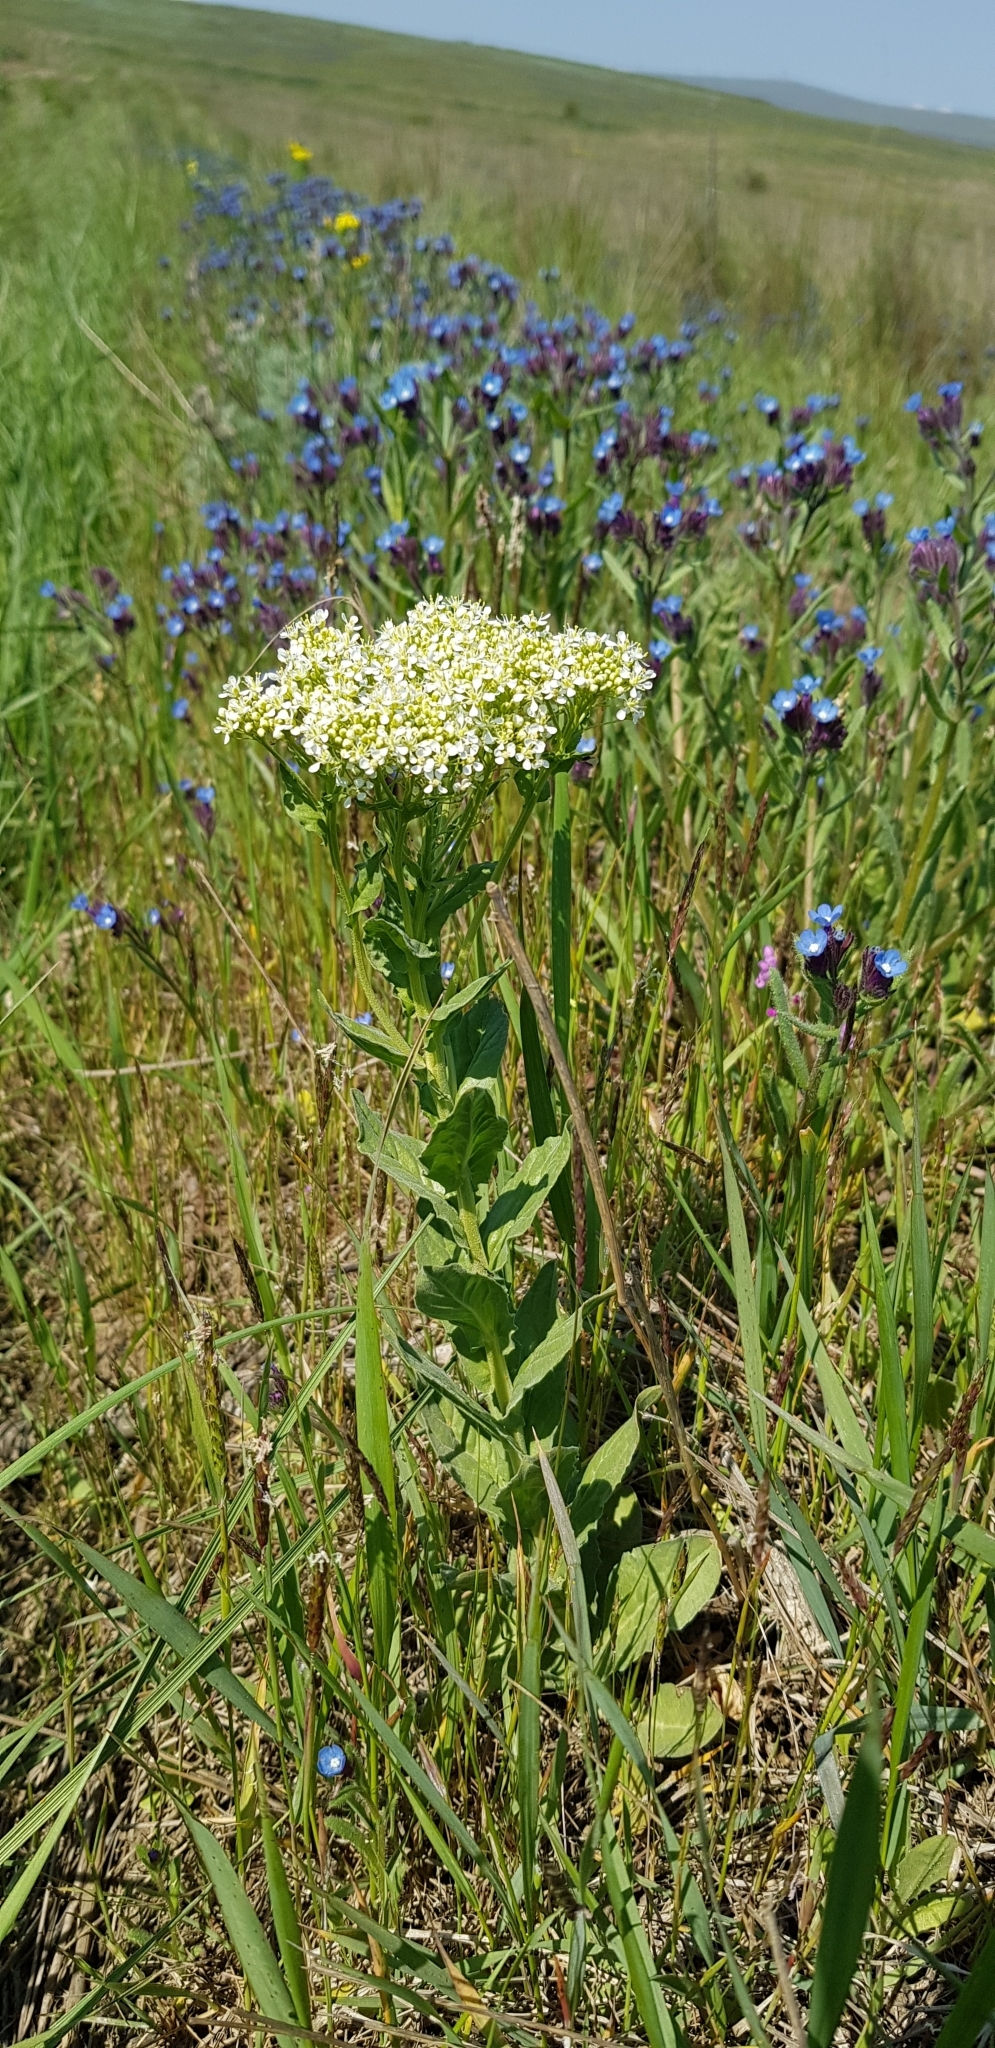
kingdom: Plantae
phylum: Tracheophyta
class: Magnoliopsida
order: Brassicales
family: Brassicaceae
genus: Lepidium
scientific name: Lepidium draba
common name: Hoary cress
